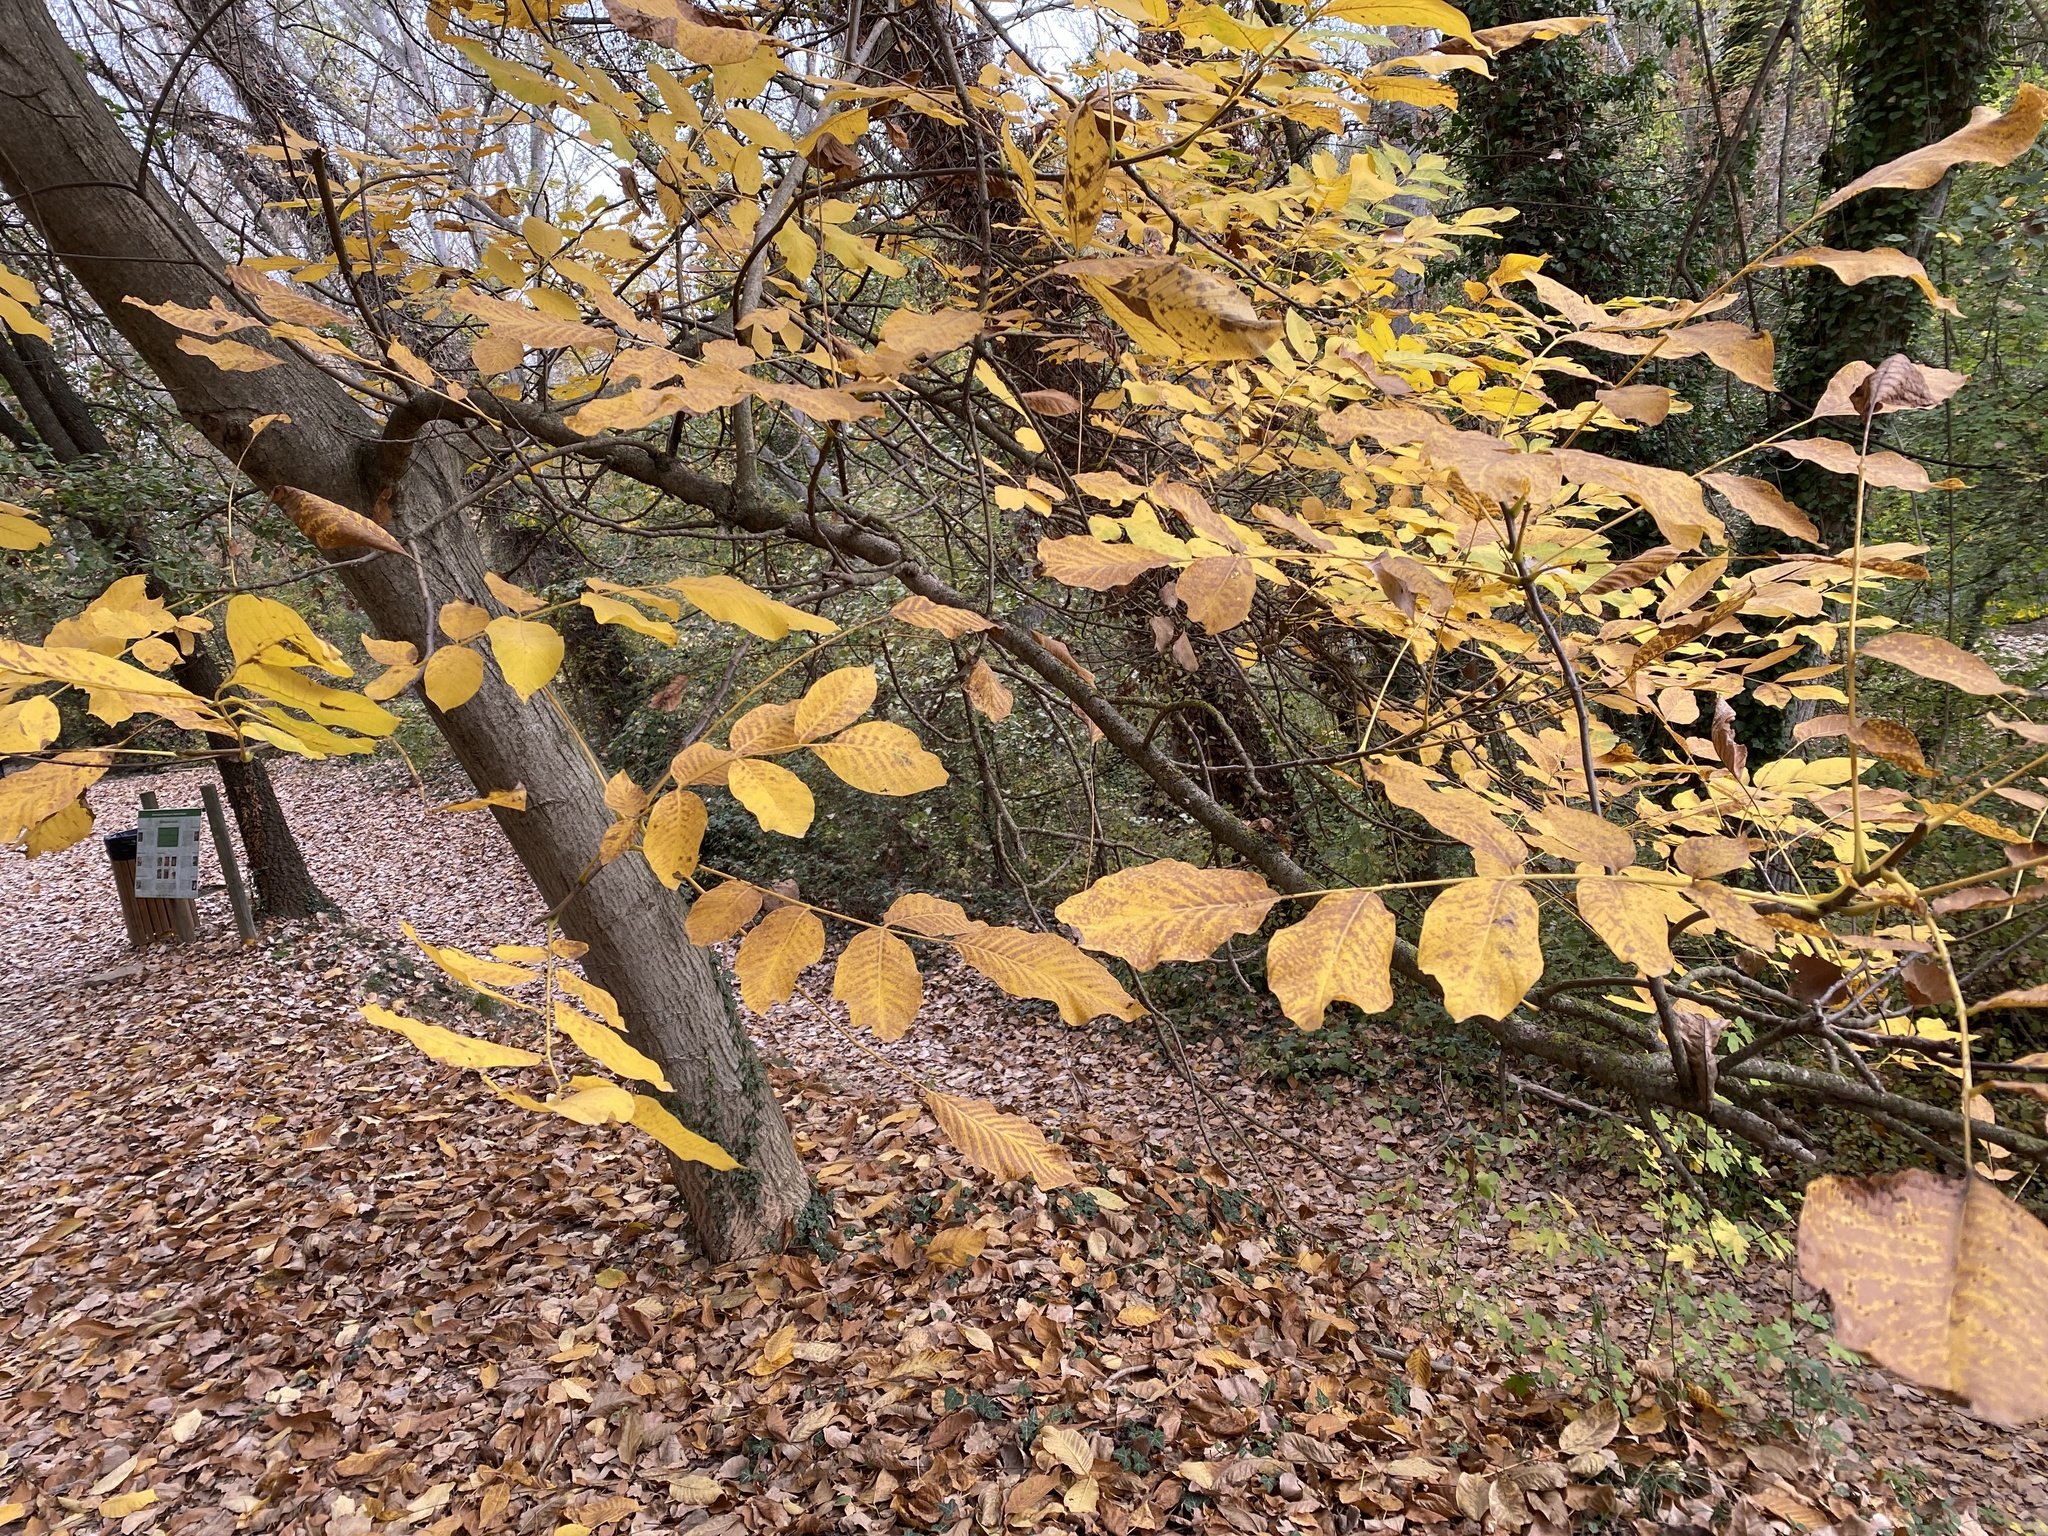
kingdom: Plantae
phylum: Tracheophyta
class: Magnoliopsida
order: Fagales
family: Juglandaceae
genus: Juglans
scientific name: Juglans regia
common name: Walnut
